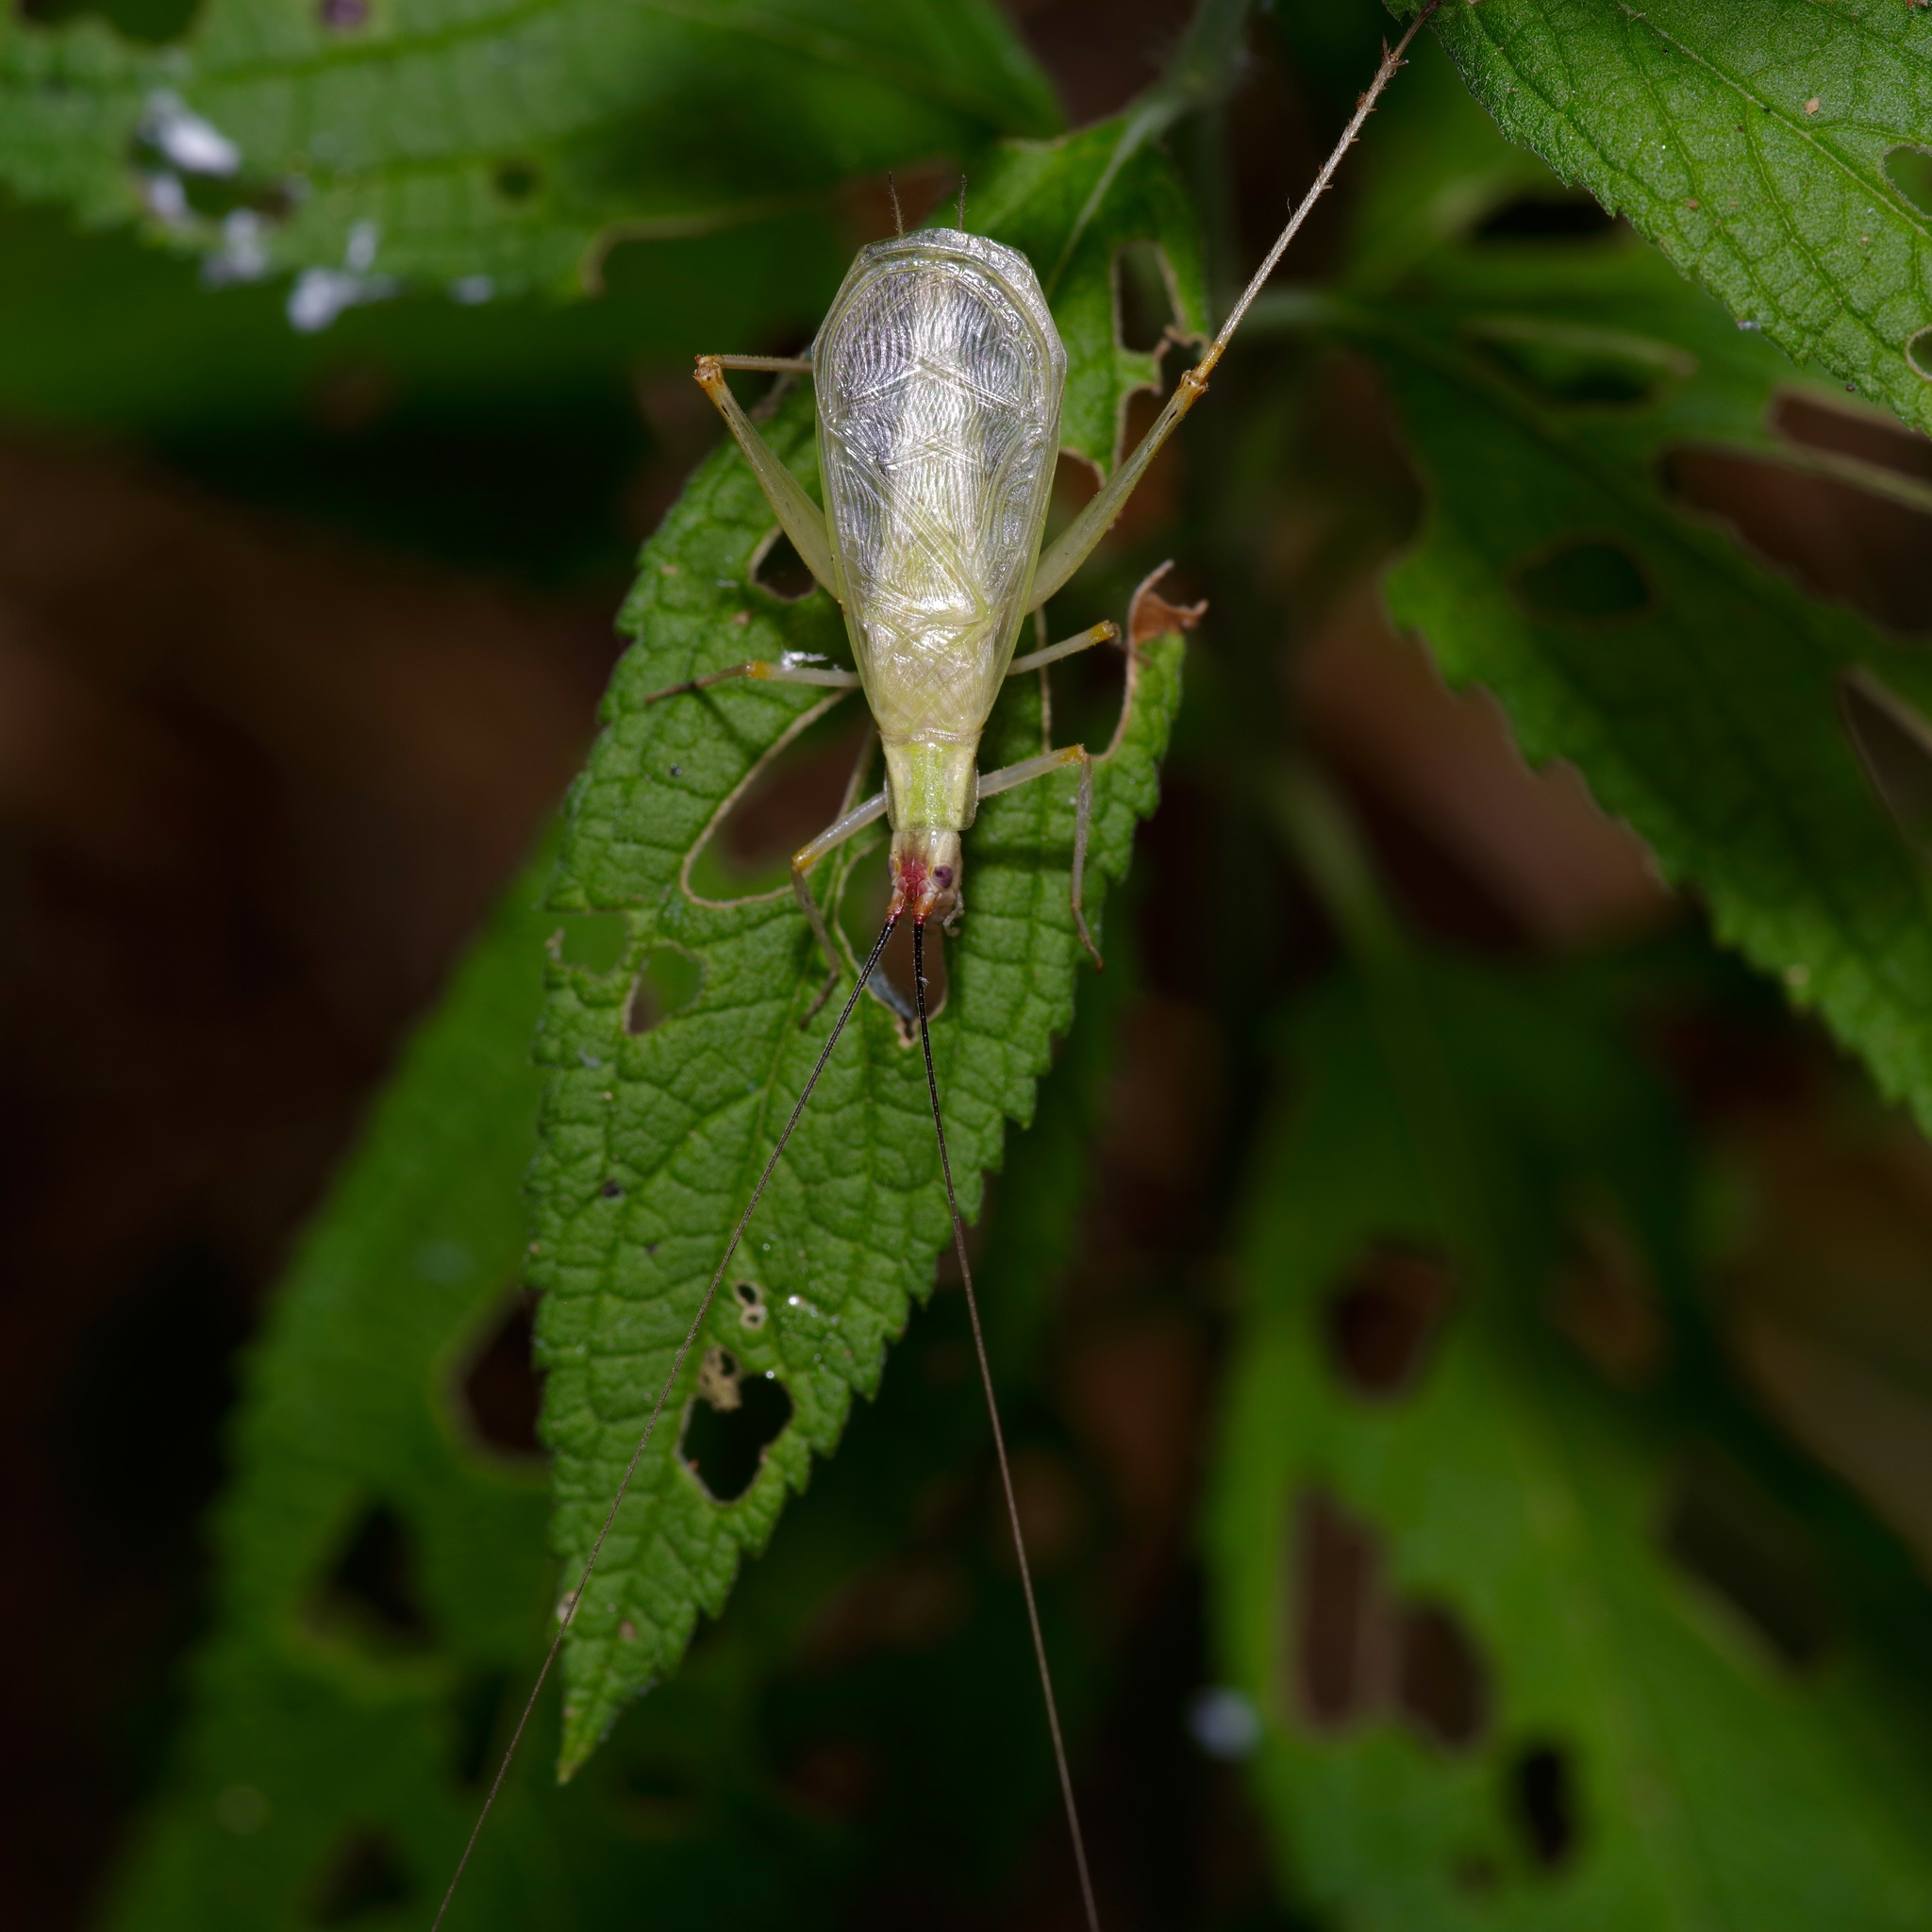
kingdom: Animalia
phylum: Arthropoda
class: Insecta
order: Orthoptera
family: Gryllidae
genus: Oecanthus
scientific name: Oecanthus varicornis
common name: Different-horned tree cricket
